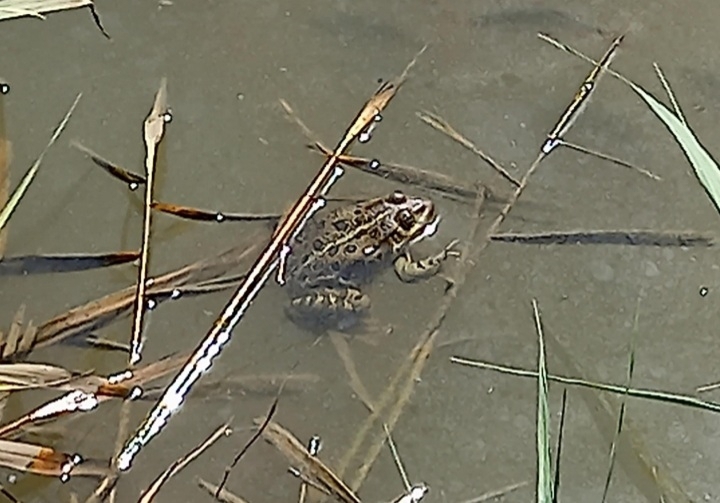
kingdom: Animalia
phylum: Chordata
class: Amphibia
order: Anura
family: Ranidae
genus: Pelophylax
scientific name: Pelophylax
